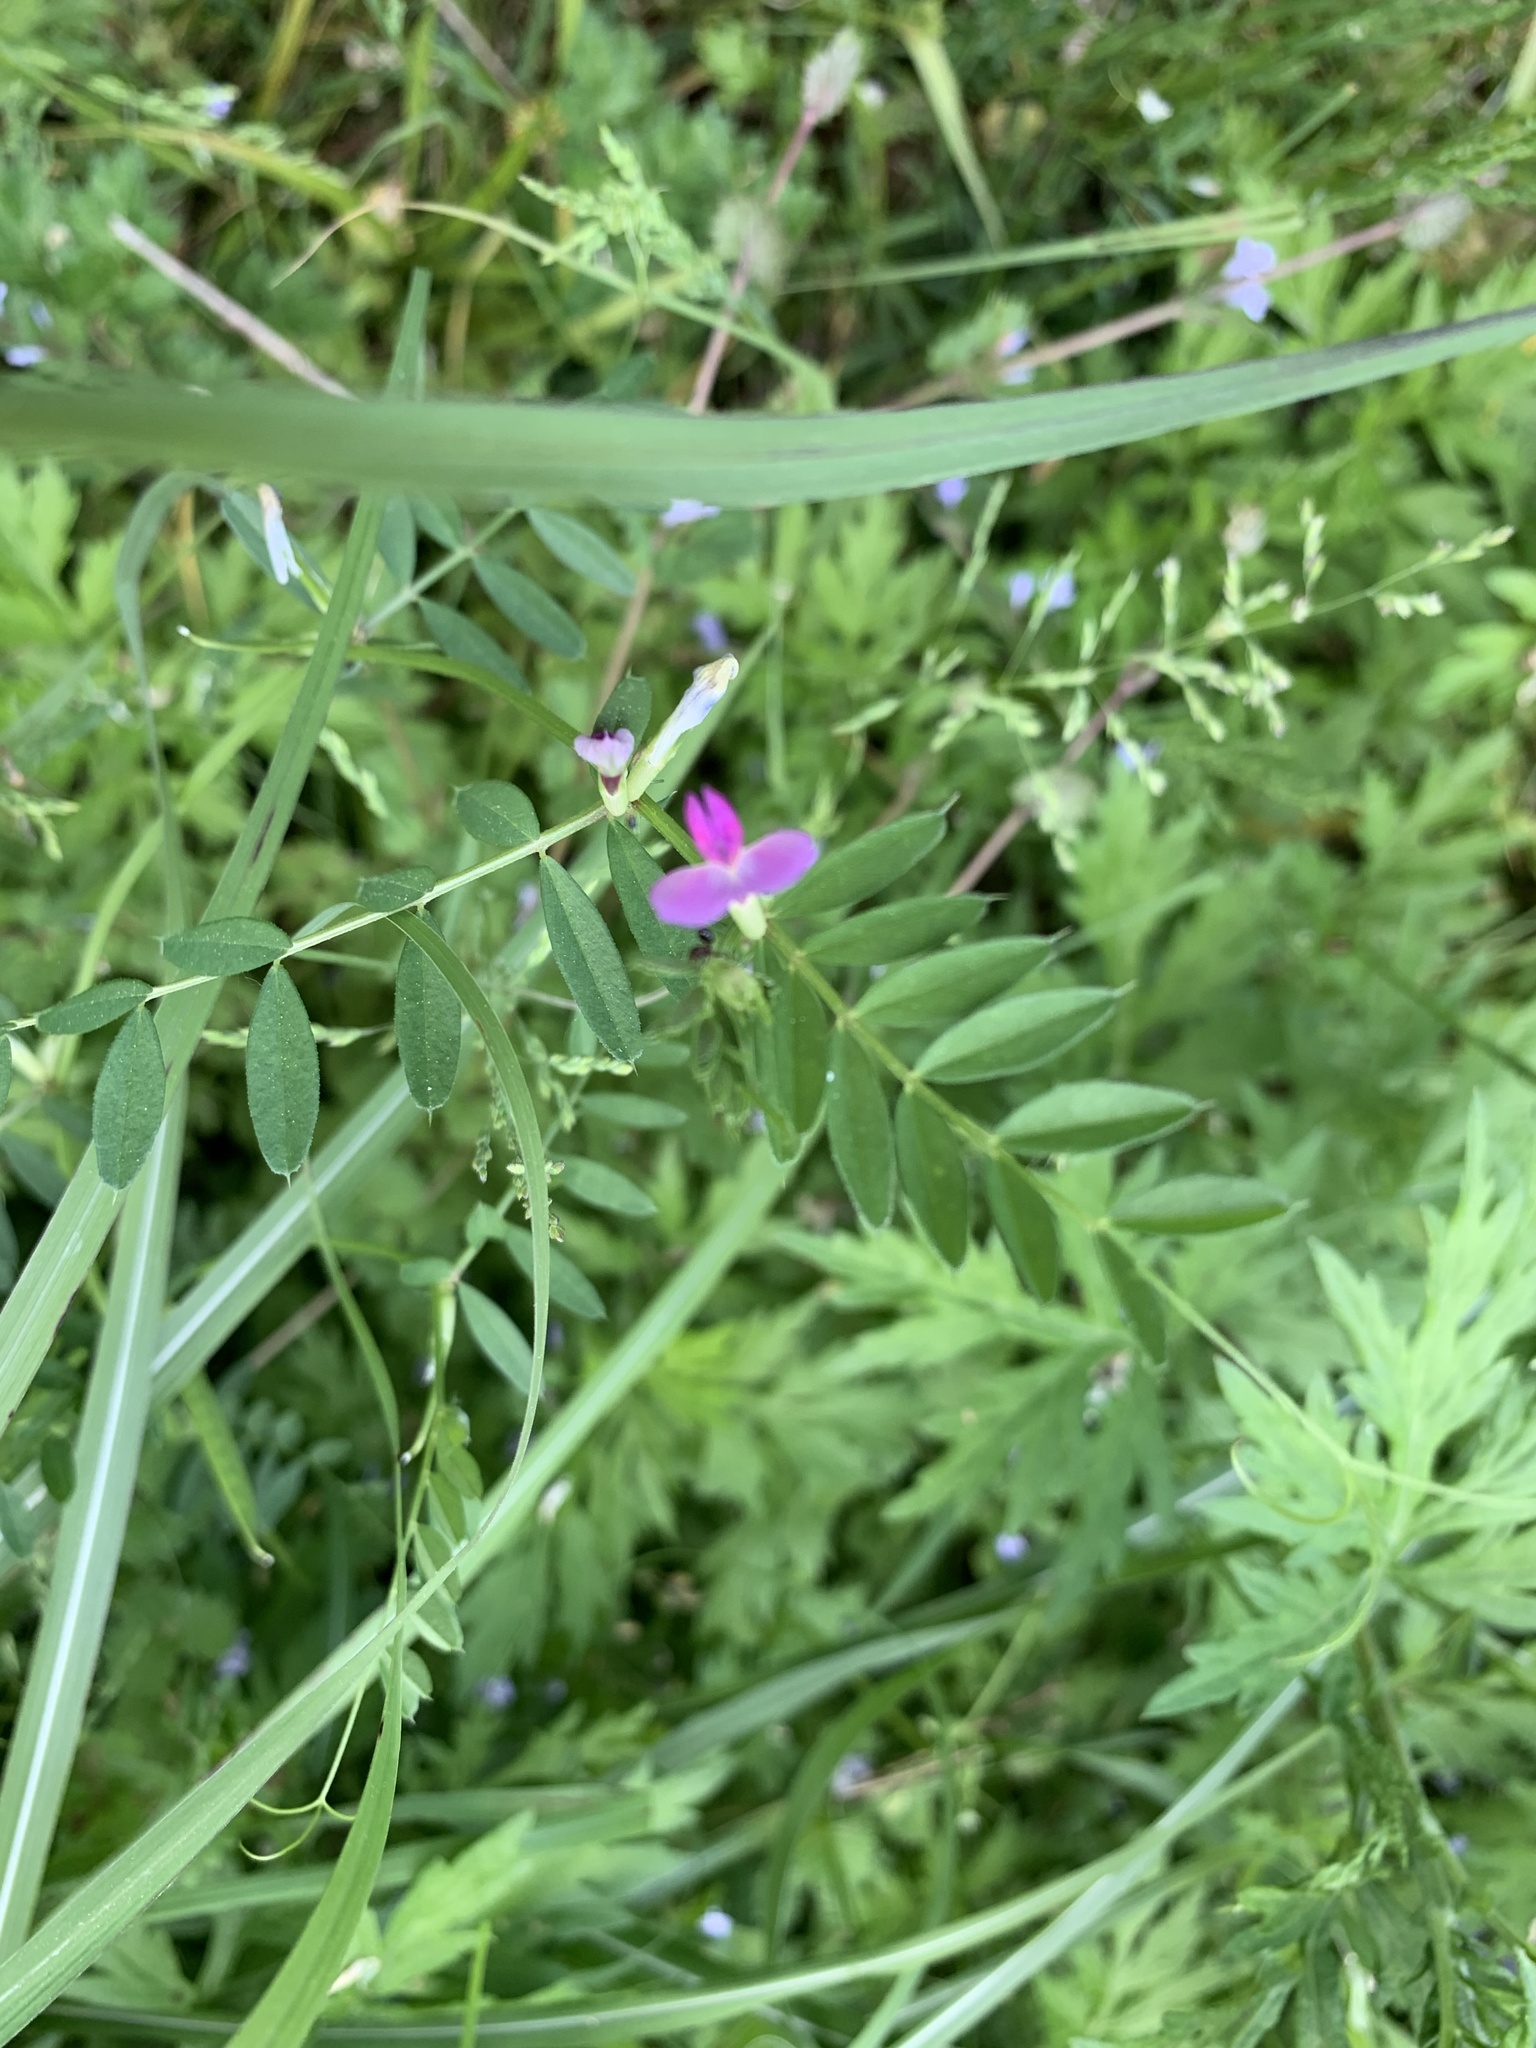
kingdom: Plantae
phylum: Tracheophyta
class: Magnoliopsida
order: Fabales
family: Fabaceae
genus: Vicia
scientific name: Vicia sativa
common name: Garden vetch
